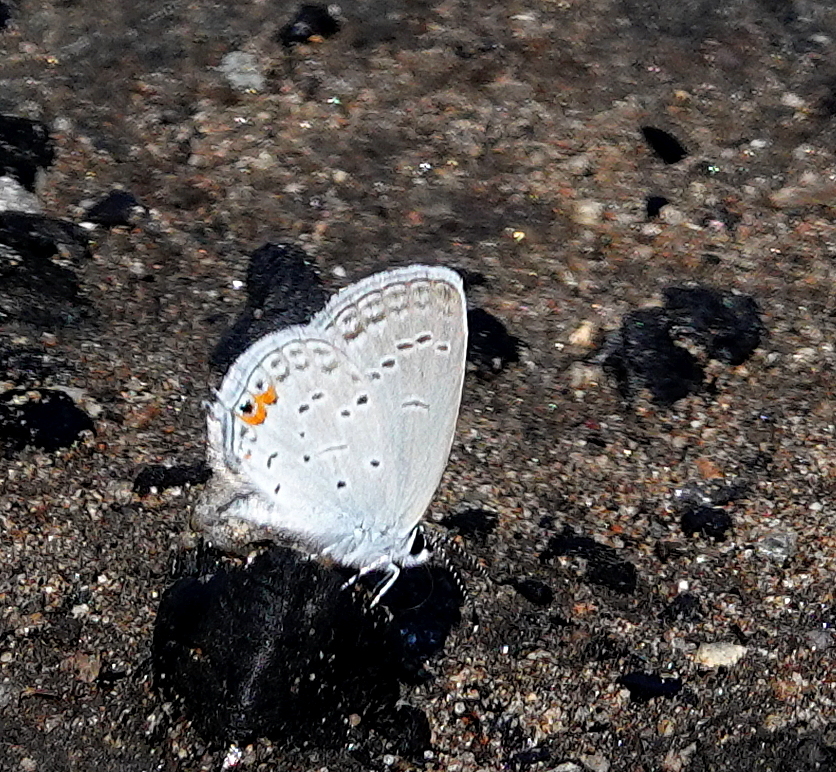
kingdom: Animalia
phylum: Arthropoda
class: Insecta
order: Lepidoptera
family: Lycaenidae
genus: Elkalyce
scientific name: Elkalyce comyntas
